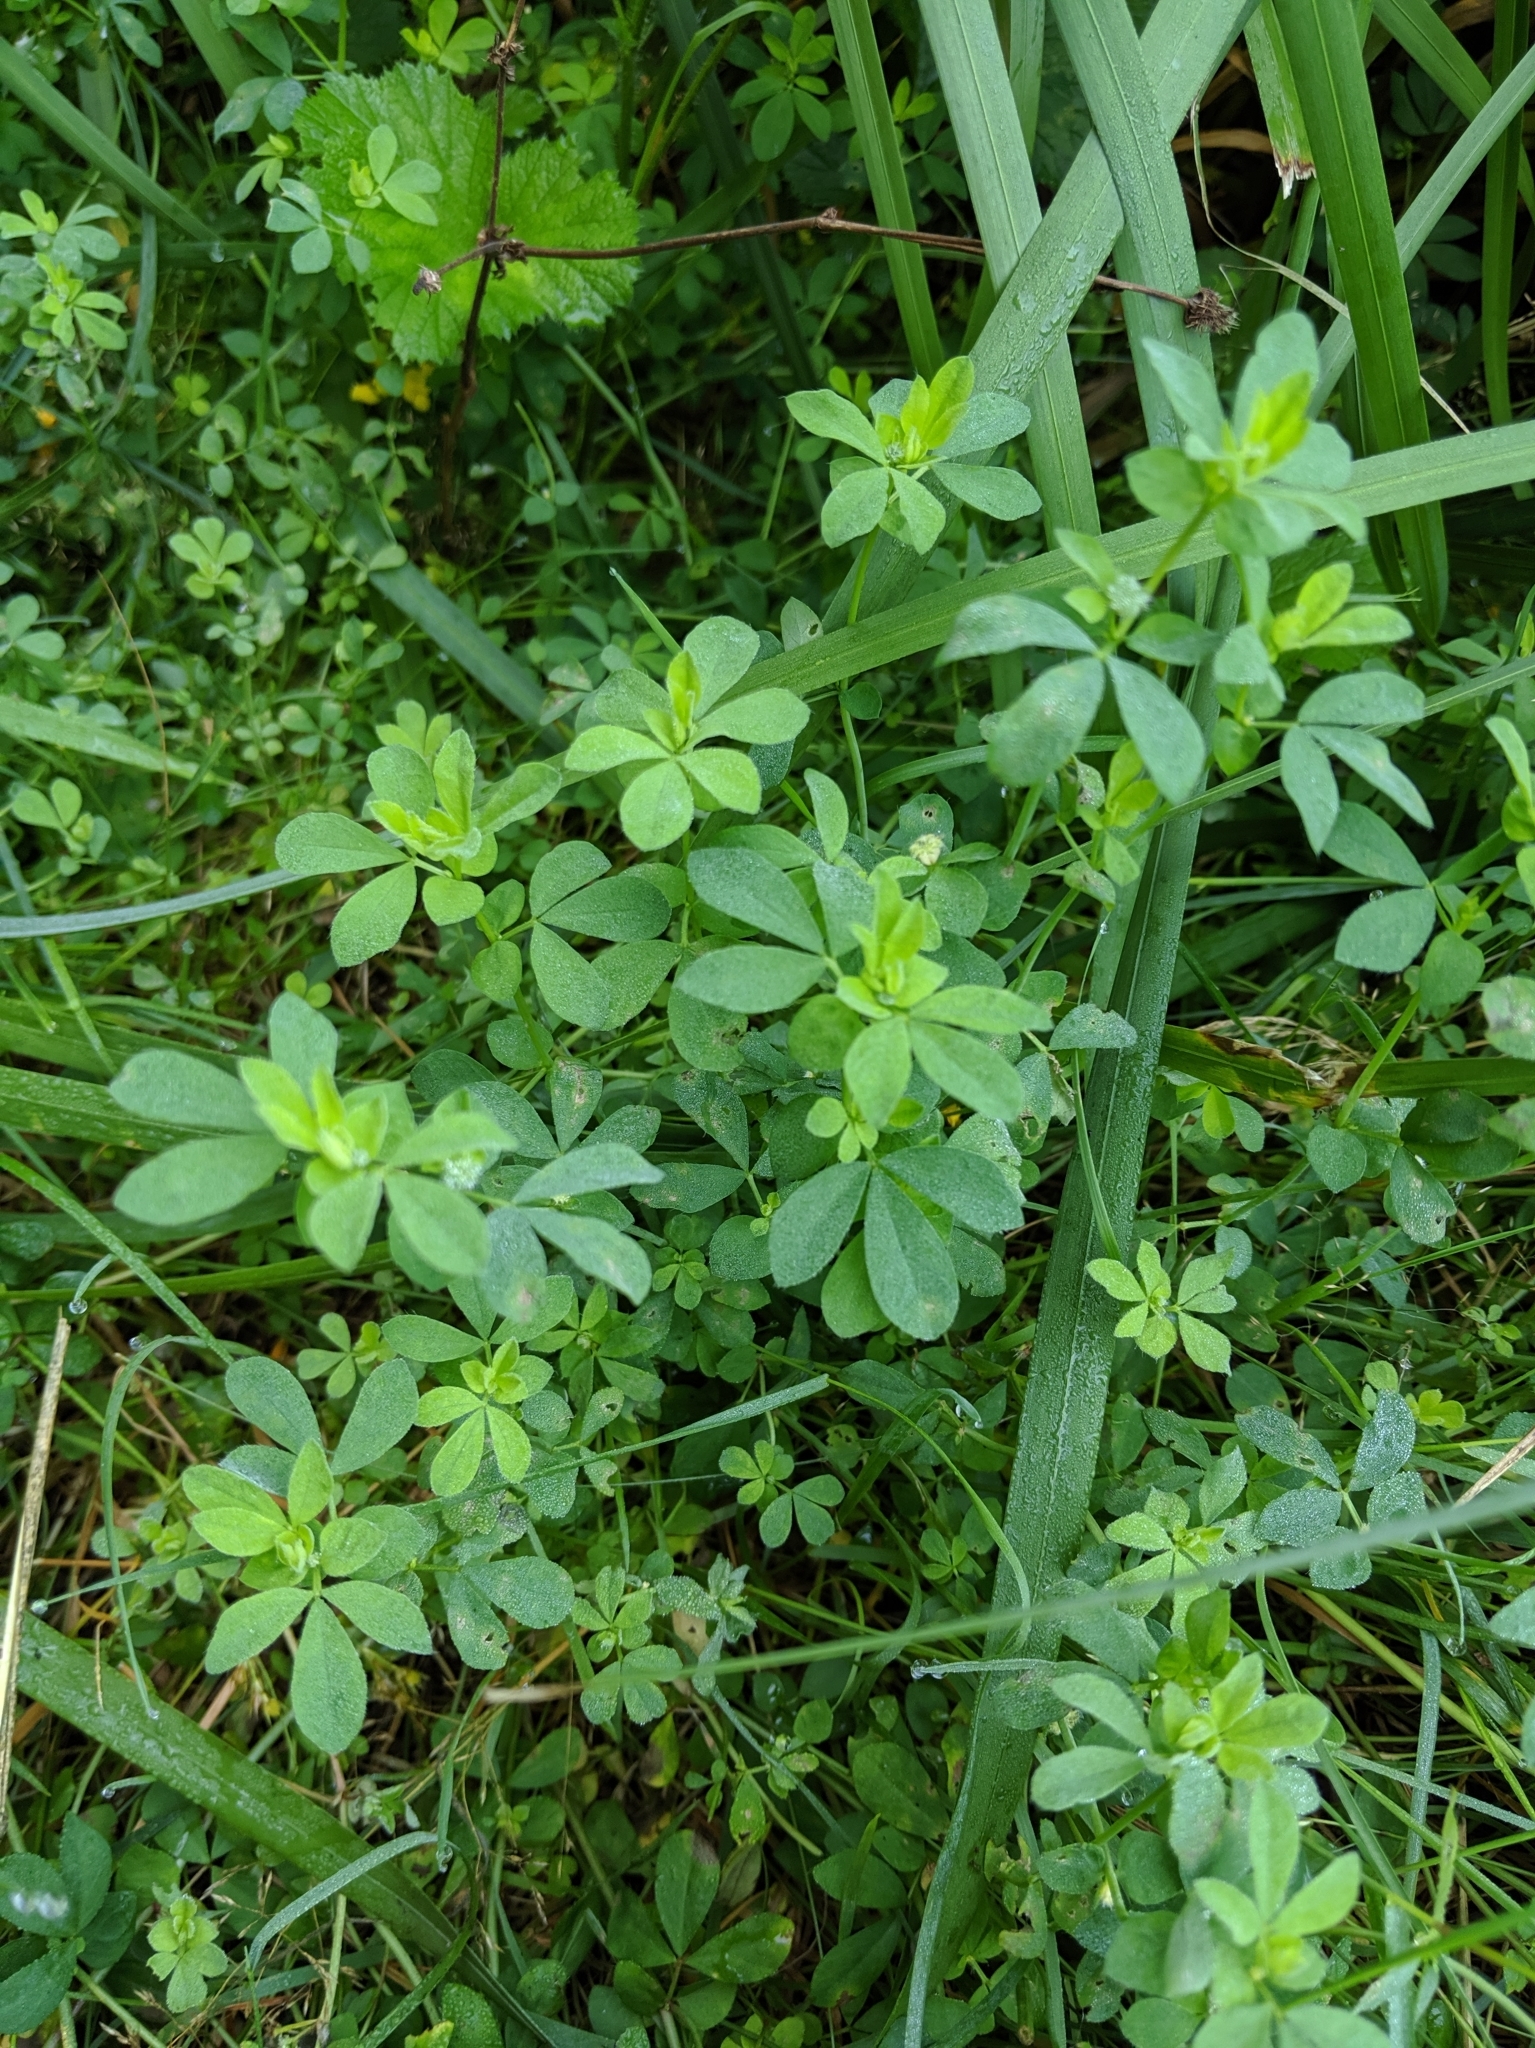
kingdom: Plantae
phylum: Tracheophyta
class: Magnoliopsida
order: Fabales
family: Fabaceae
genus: Lotus
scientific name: Lotus corniculatus
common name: Common bird's-foot-trefoil
